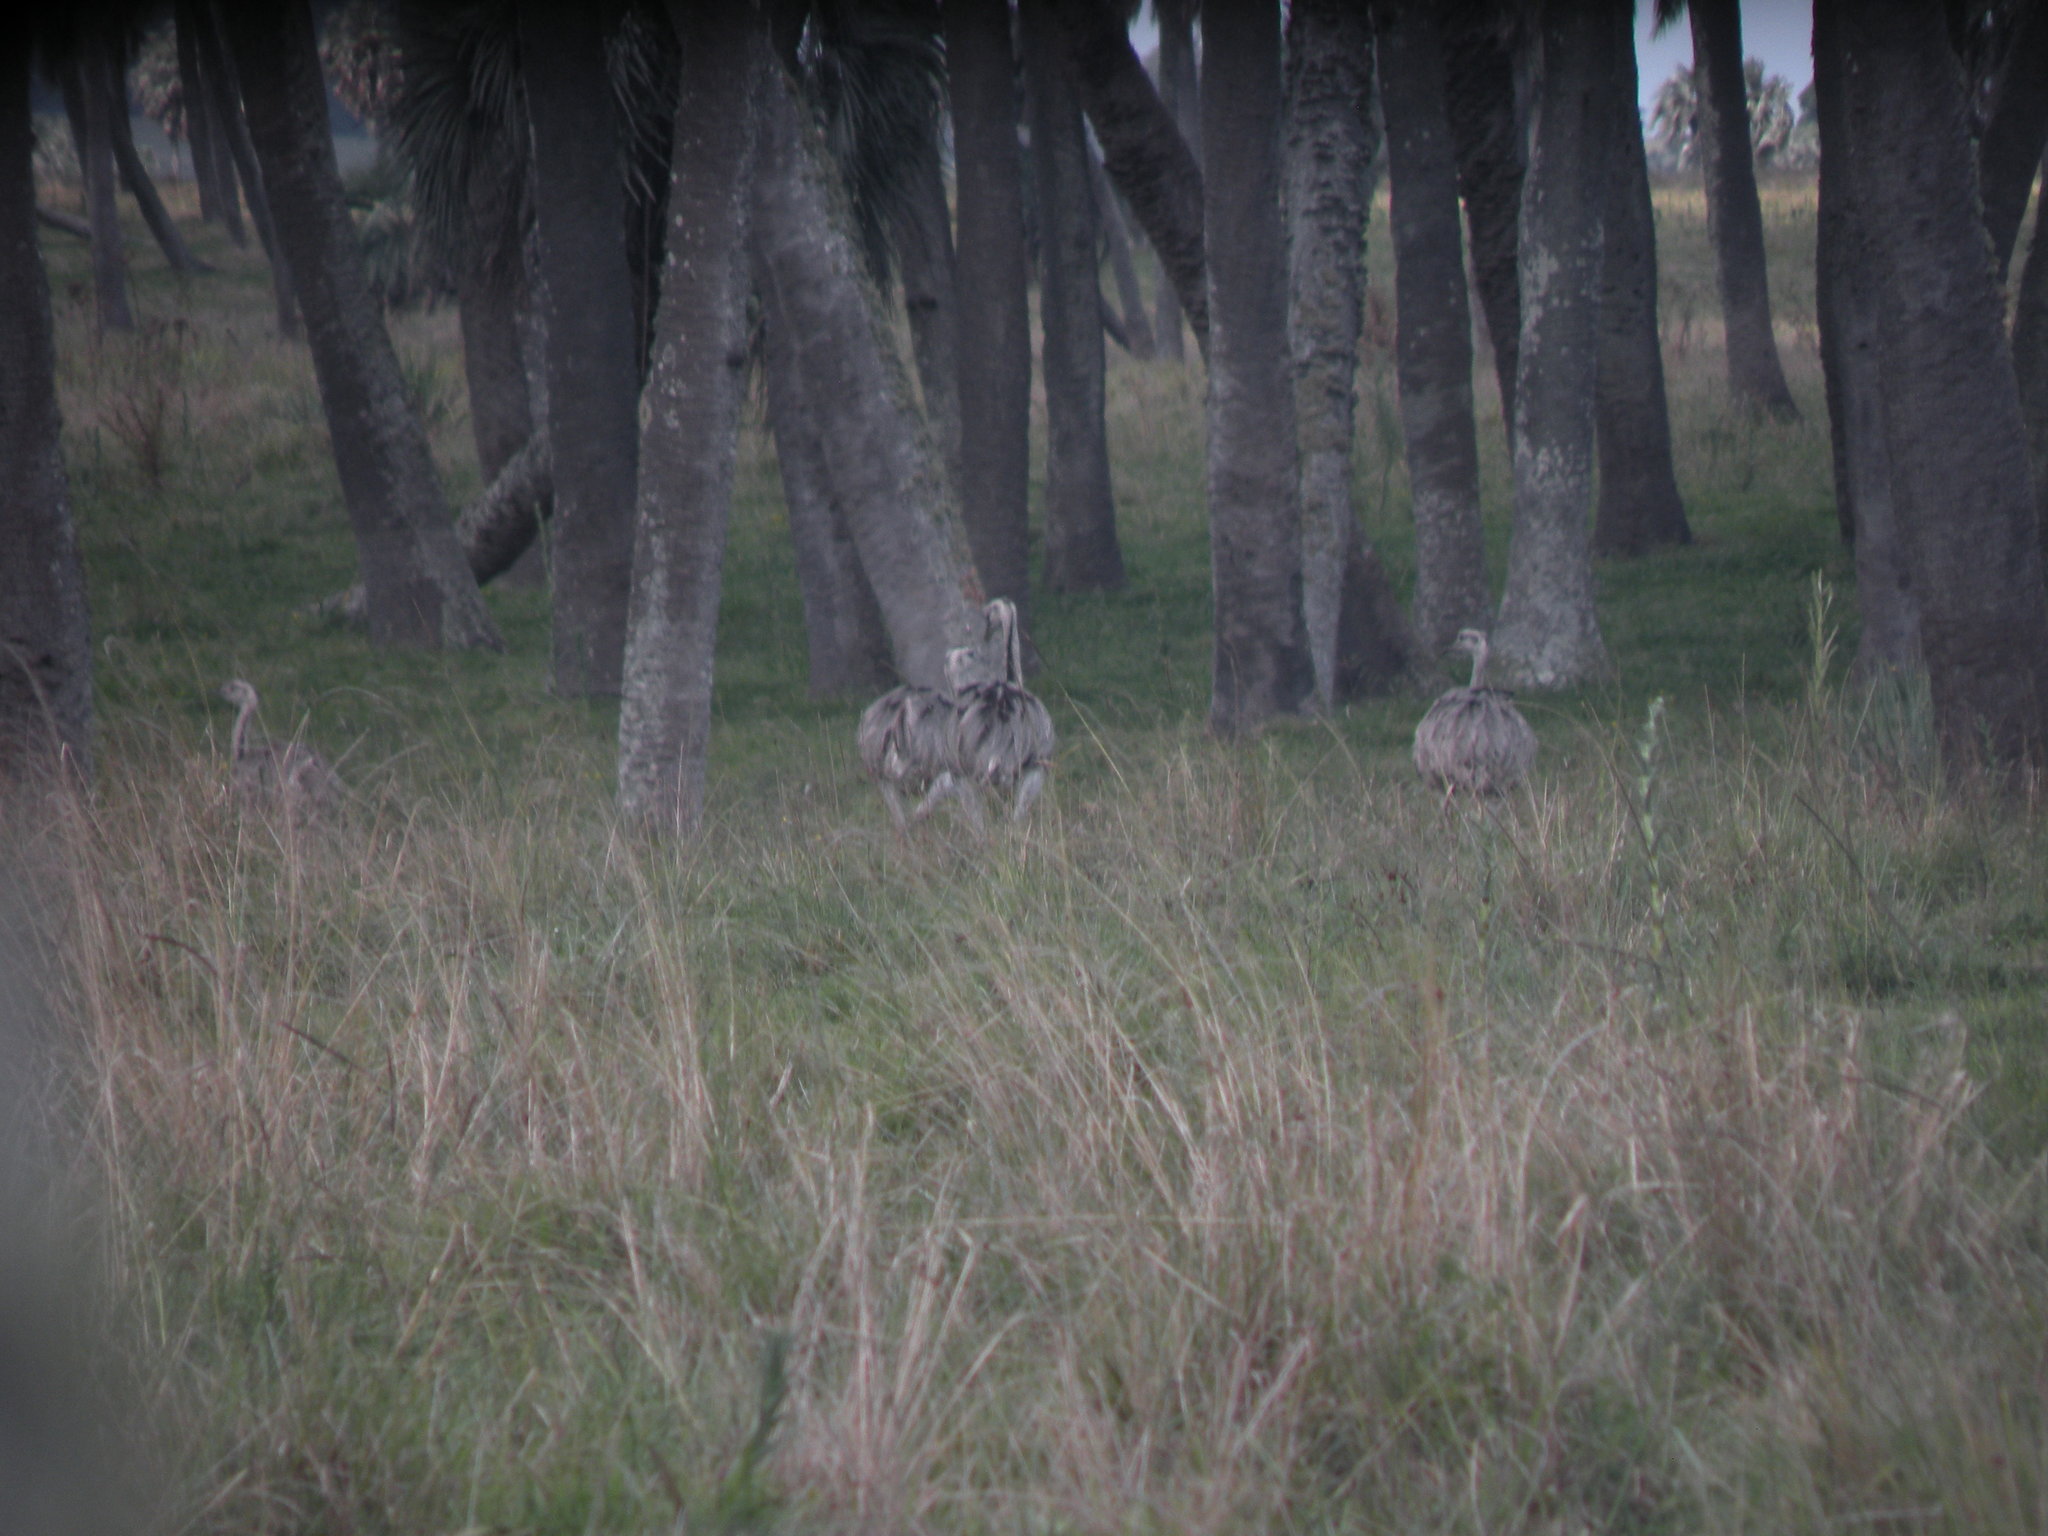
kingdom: Animalia
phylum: Chordata
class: Aves
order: Rheiformes
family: Rheidae
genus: Rhea
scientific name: Rhea americana
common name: Greater rhea
